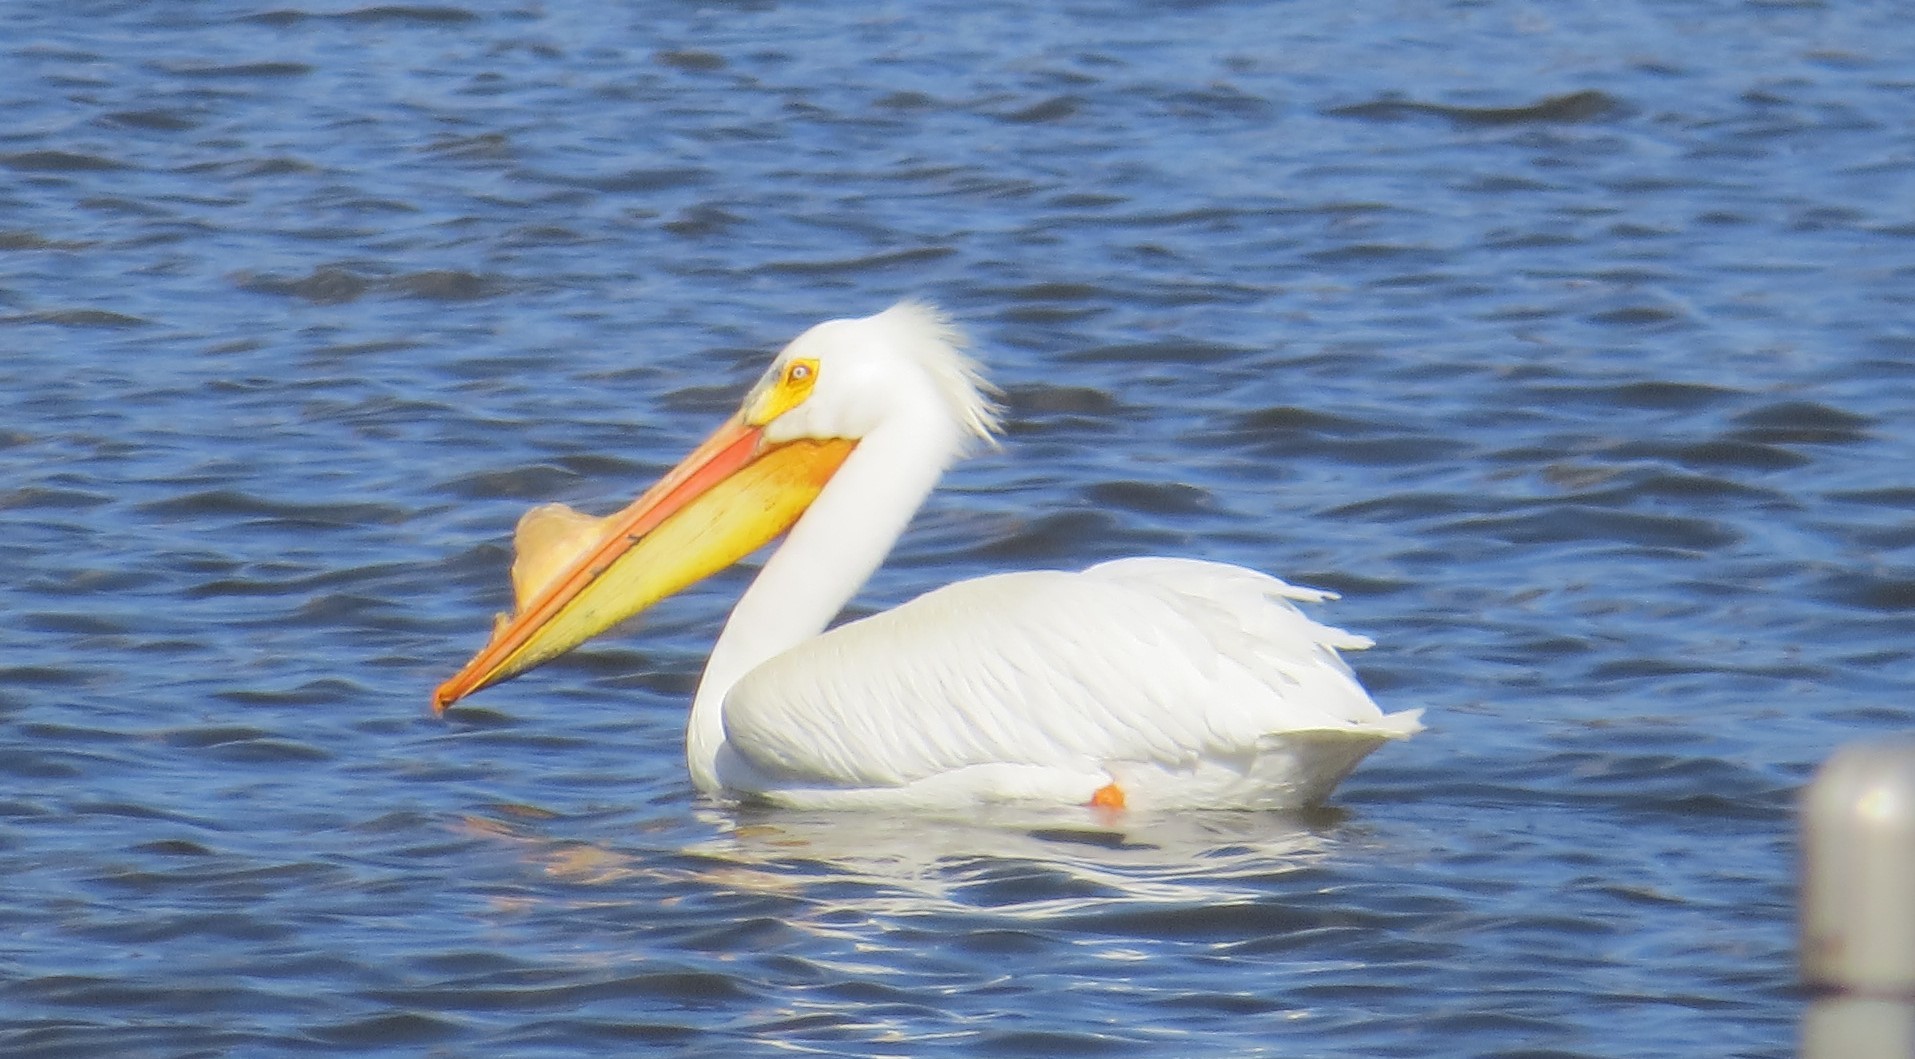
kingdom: Animalia
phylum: Chordata
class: Aves
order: Pelecaniformes
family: Pelecanidae
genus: Pelecanus
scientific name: Pelecanus erythrorhynchos
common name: American white pelican
